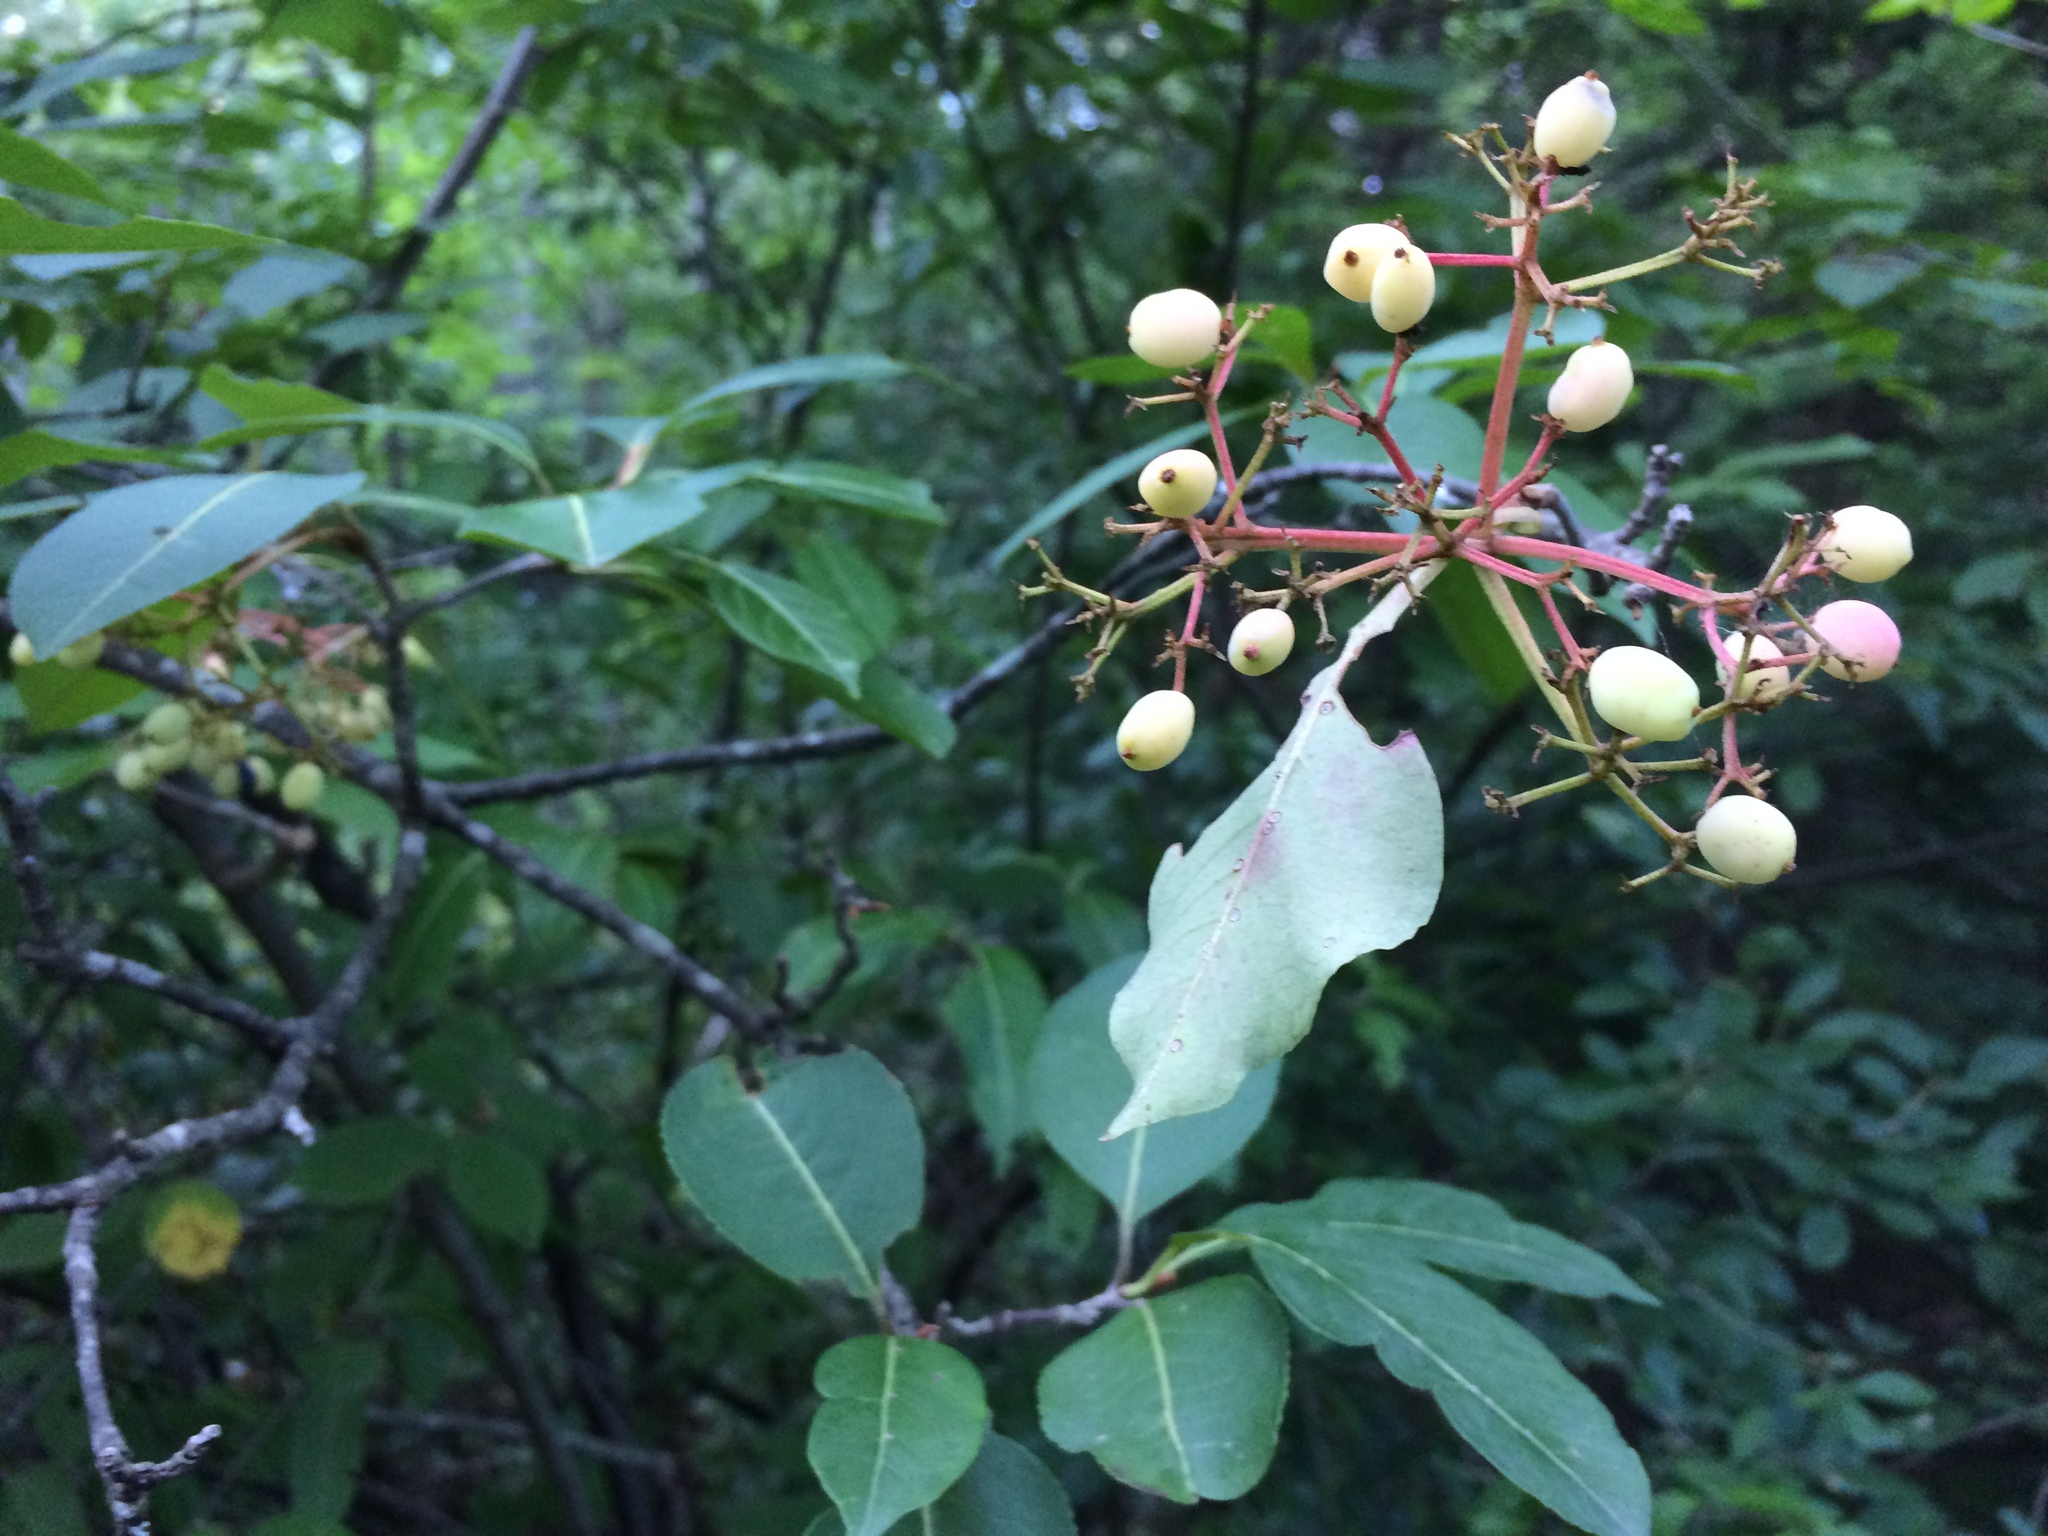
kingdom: Plantae
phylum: Tracheophyta
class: Magnoliopsida
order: Dipsacales
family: Viburnaceae
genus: Viburnum
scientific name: Viburnum cassinoides
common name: Swamp haw
